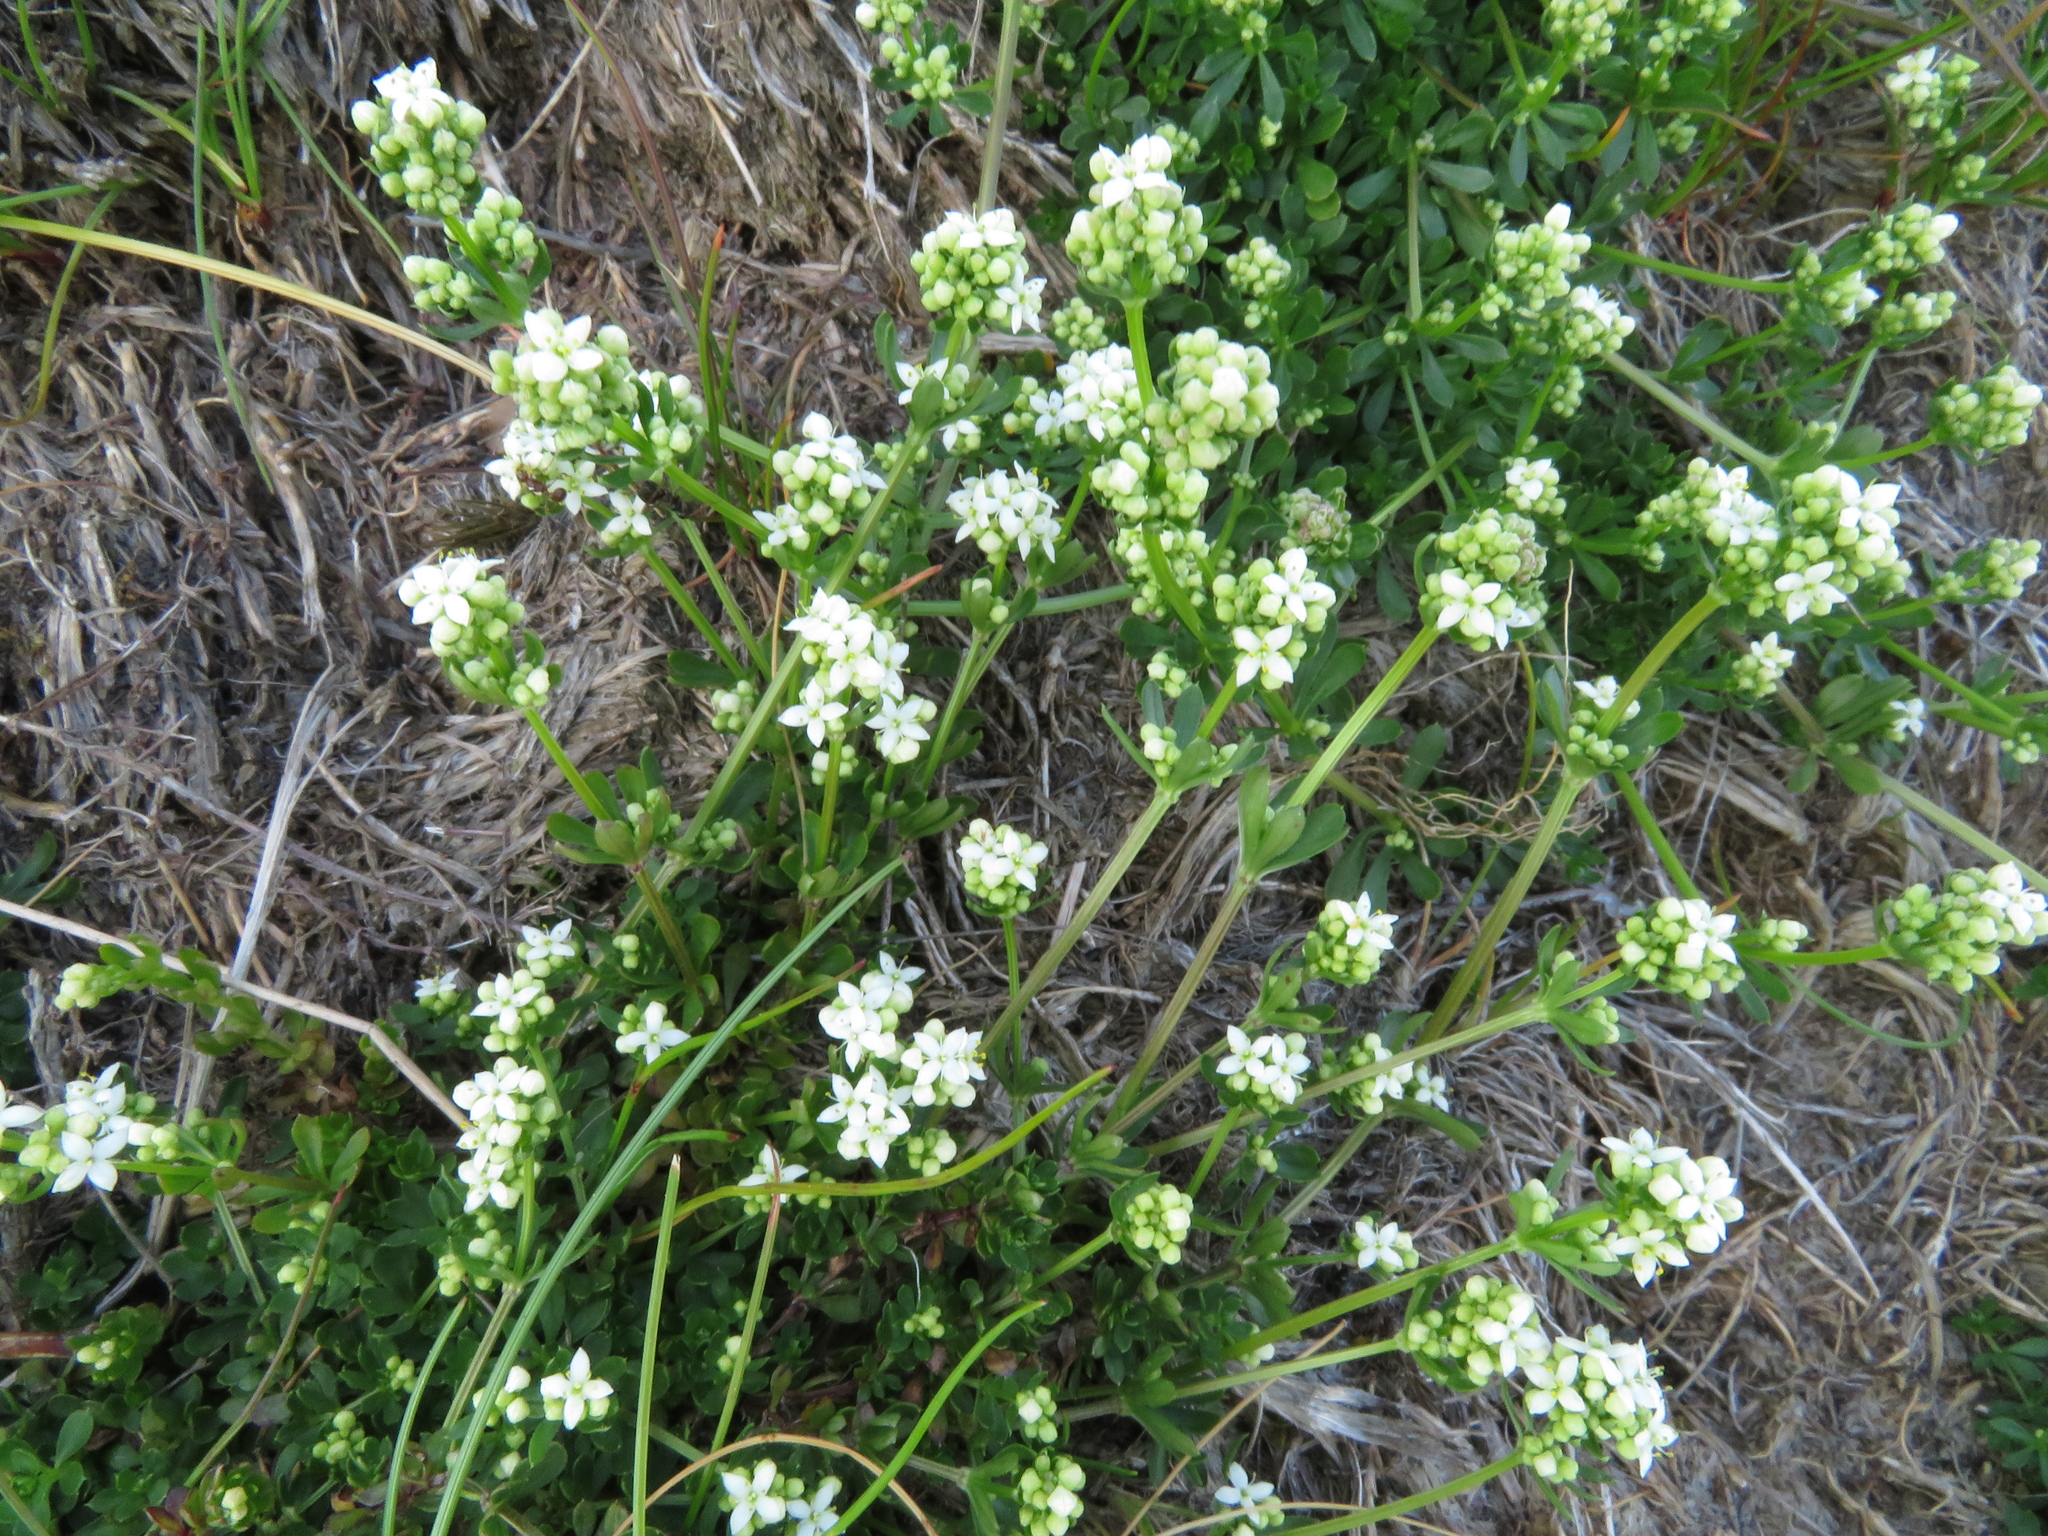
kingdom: Plantae
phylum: Tracheophyta
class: Magnoliopsida
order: Gentianales
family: Rubiaceae
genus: Galium
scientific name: Galium saxatile
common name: Heath bedstraw
